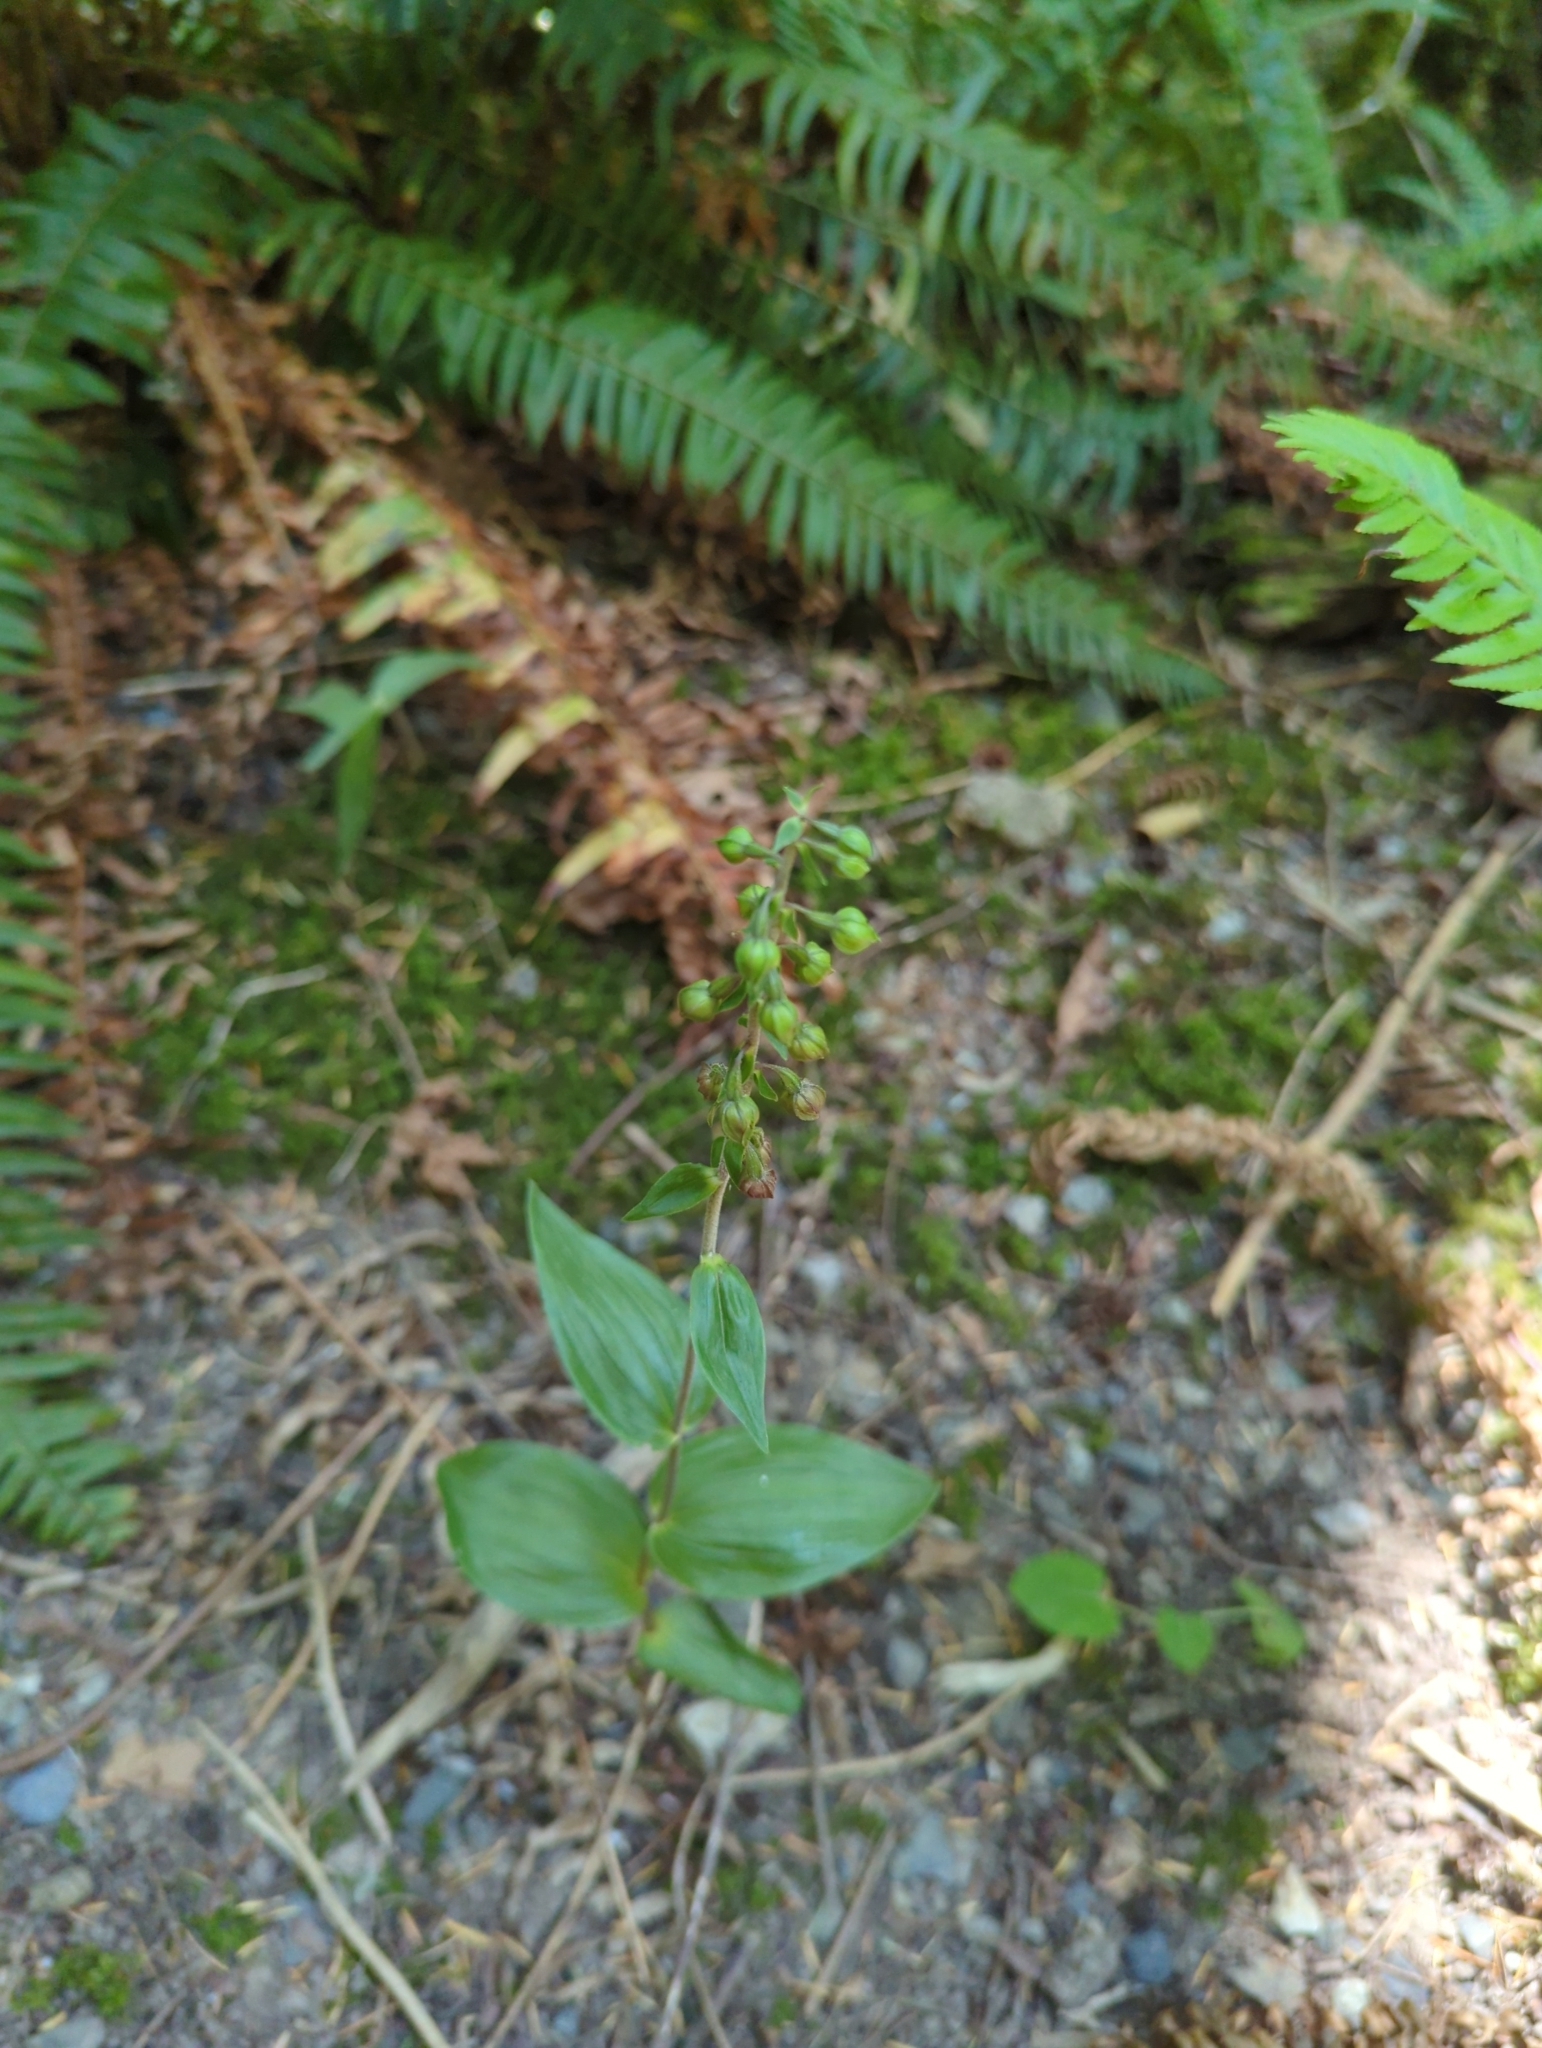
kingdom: Plantae
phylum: Tracheophyta
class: Liliopsida
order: Asparagales
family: Orchidaceae
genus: Epipactis
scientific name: Epipactis helleborine
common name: Broad-leaved helleborine
